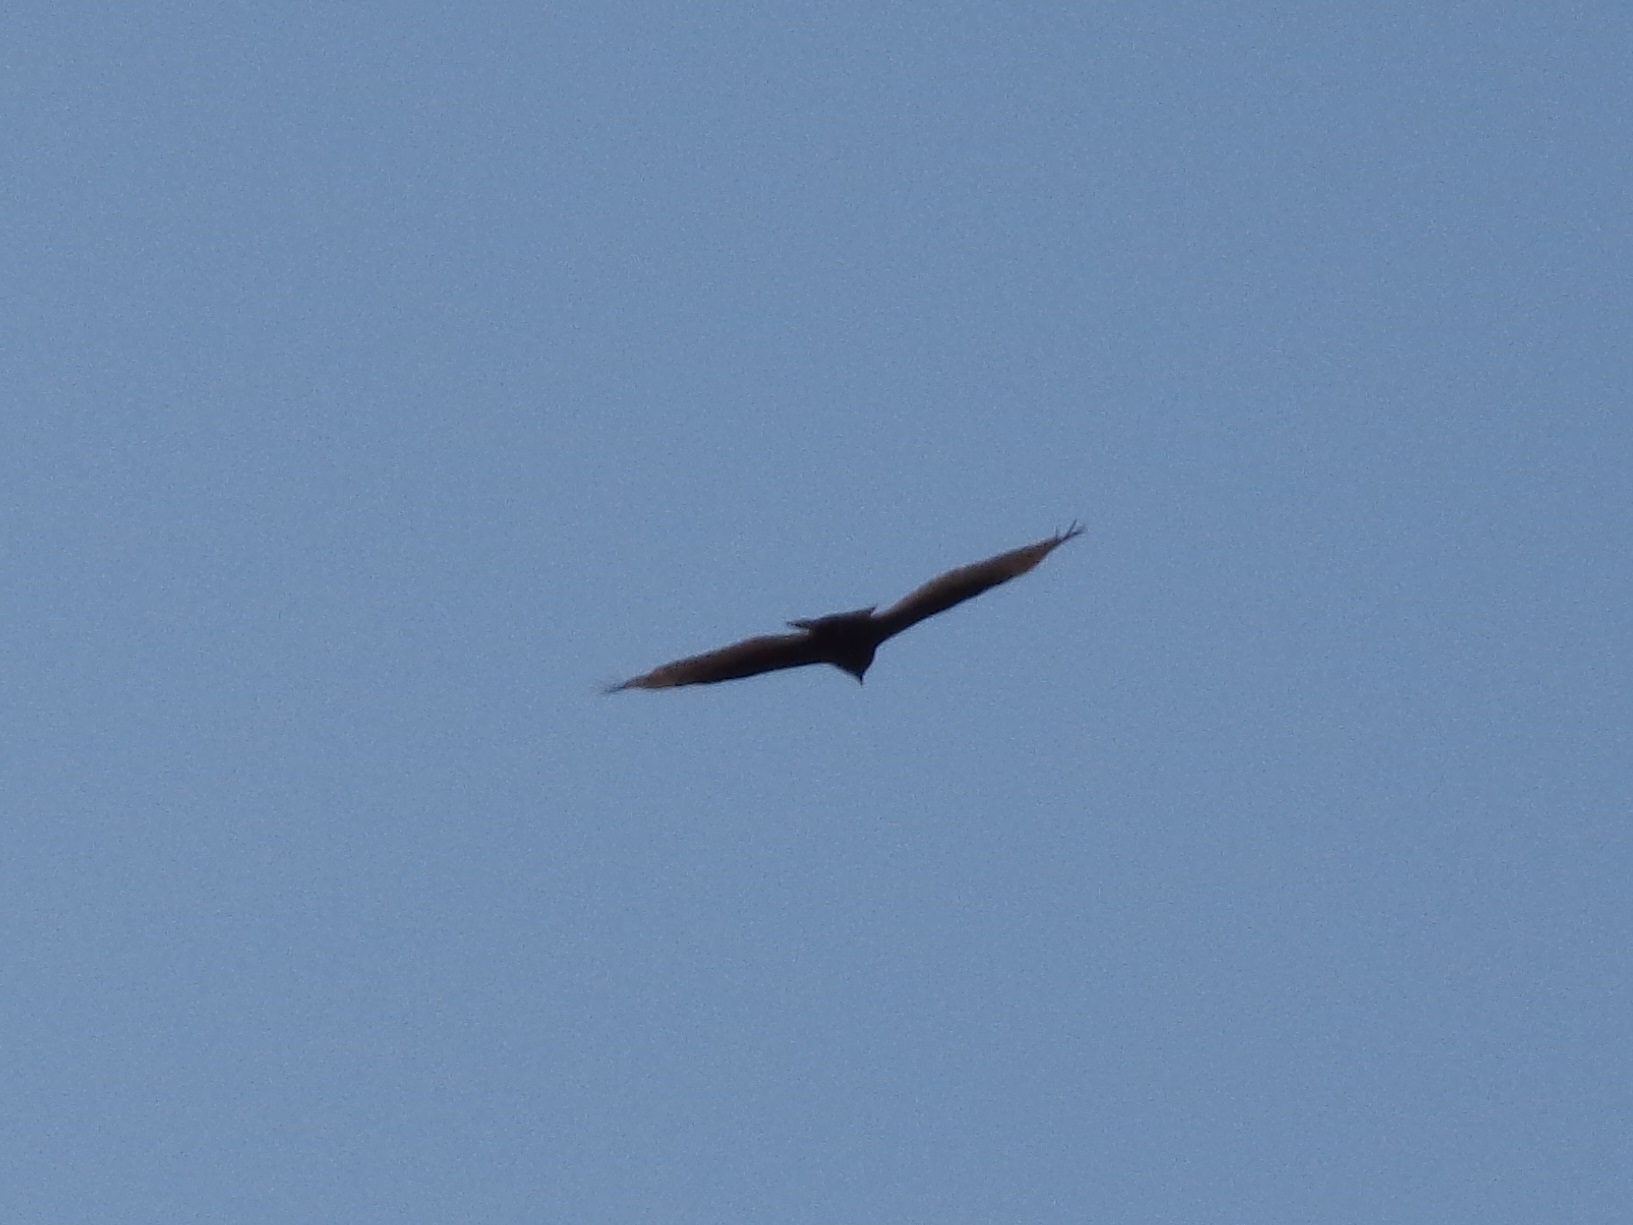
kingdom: Animalia
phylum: Chordata
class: Aves
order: Accipitriformes
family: Cathartidae
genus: Cathartes
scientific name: Cathartes aura
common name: Turkey vulture
